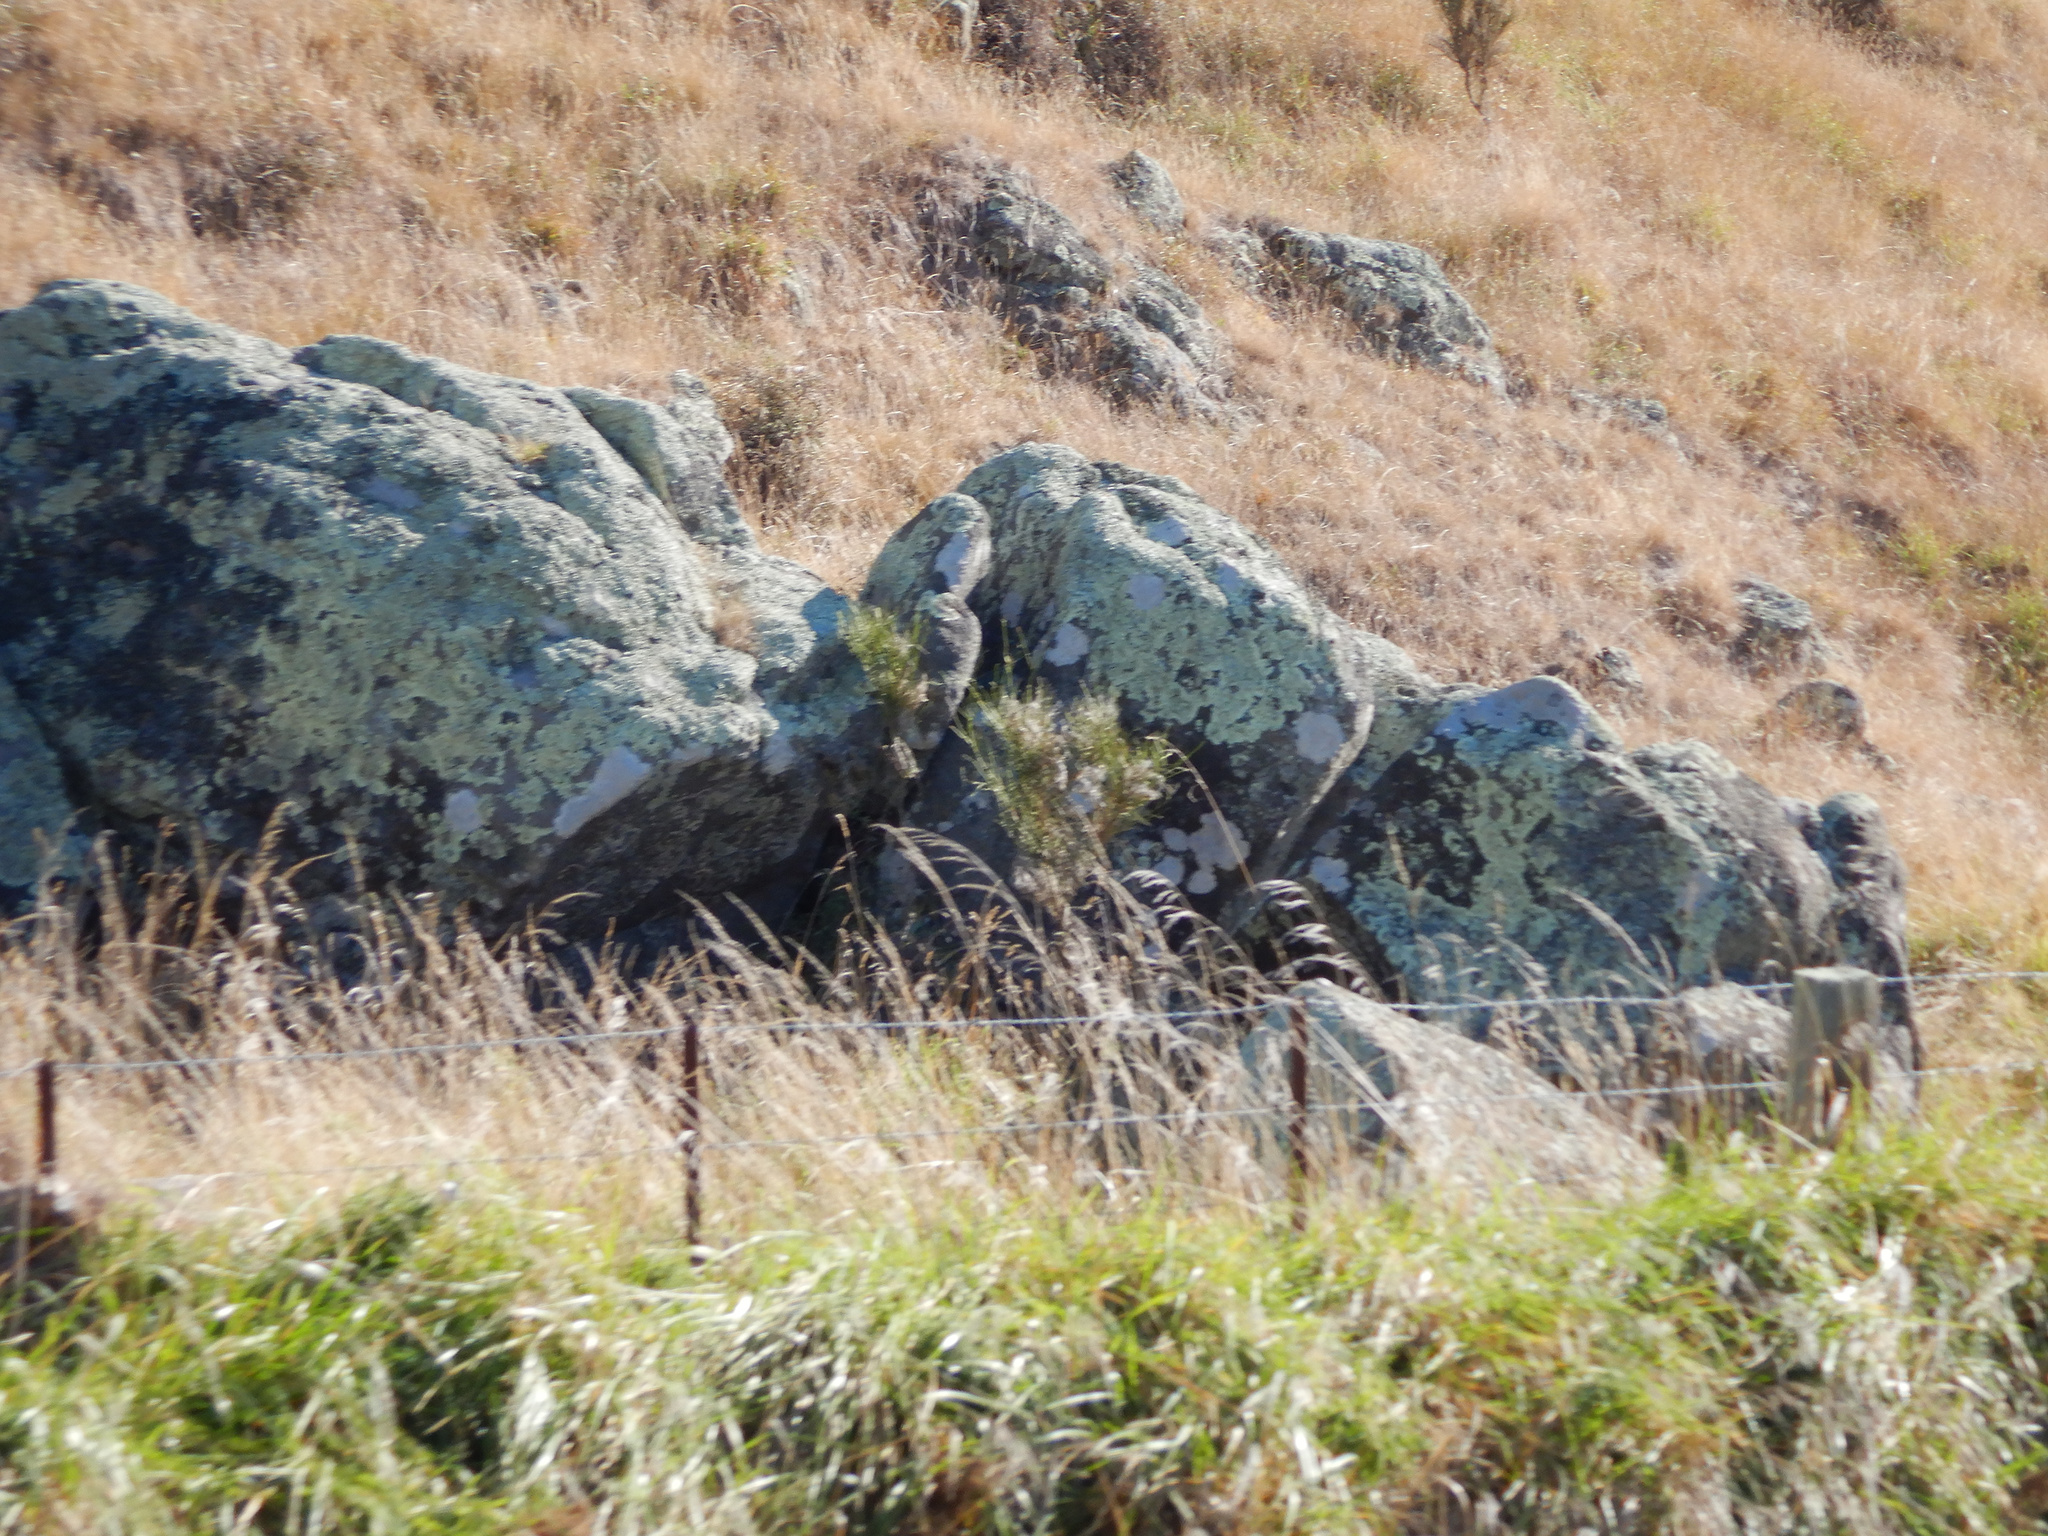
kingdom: Plantae
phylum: Tracheophyta
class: Magnoliopsida
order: Fabales
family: Fabaceae
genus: Carmichaelia
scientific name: Carmichaelia australis
